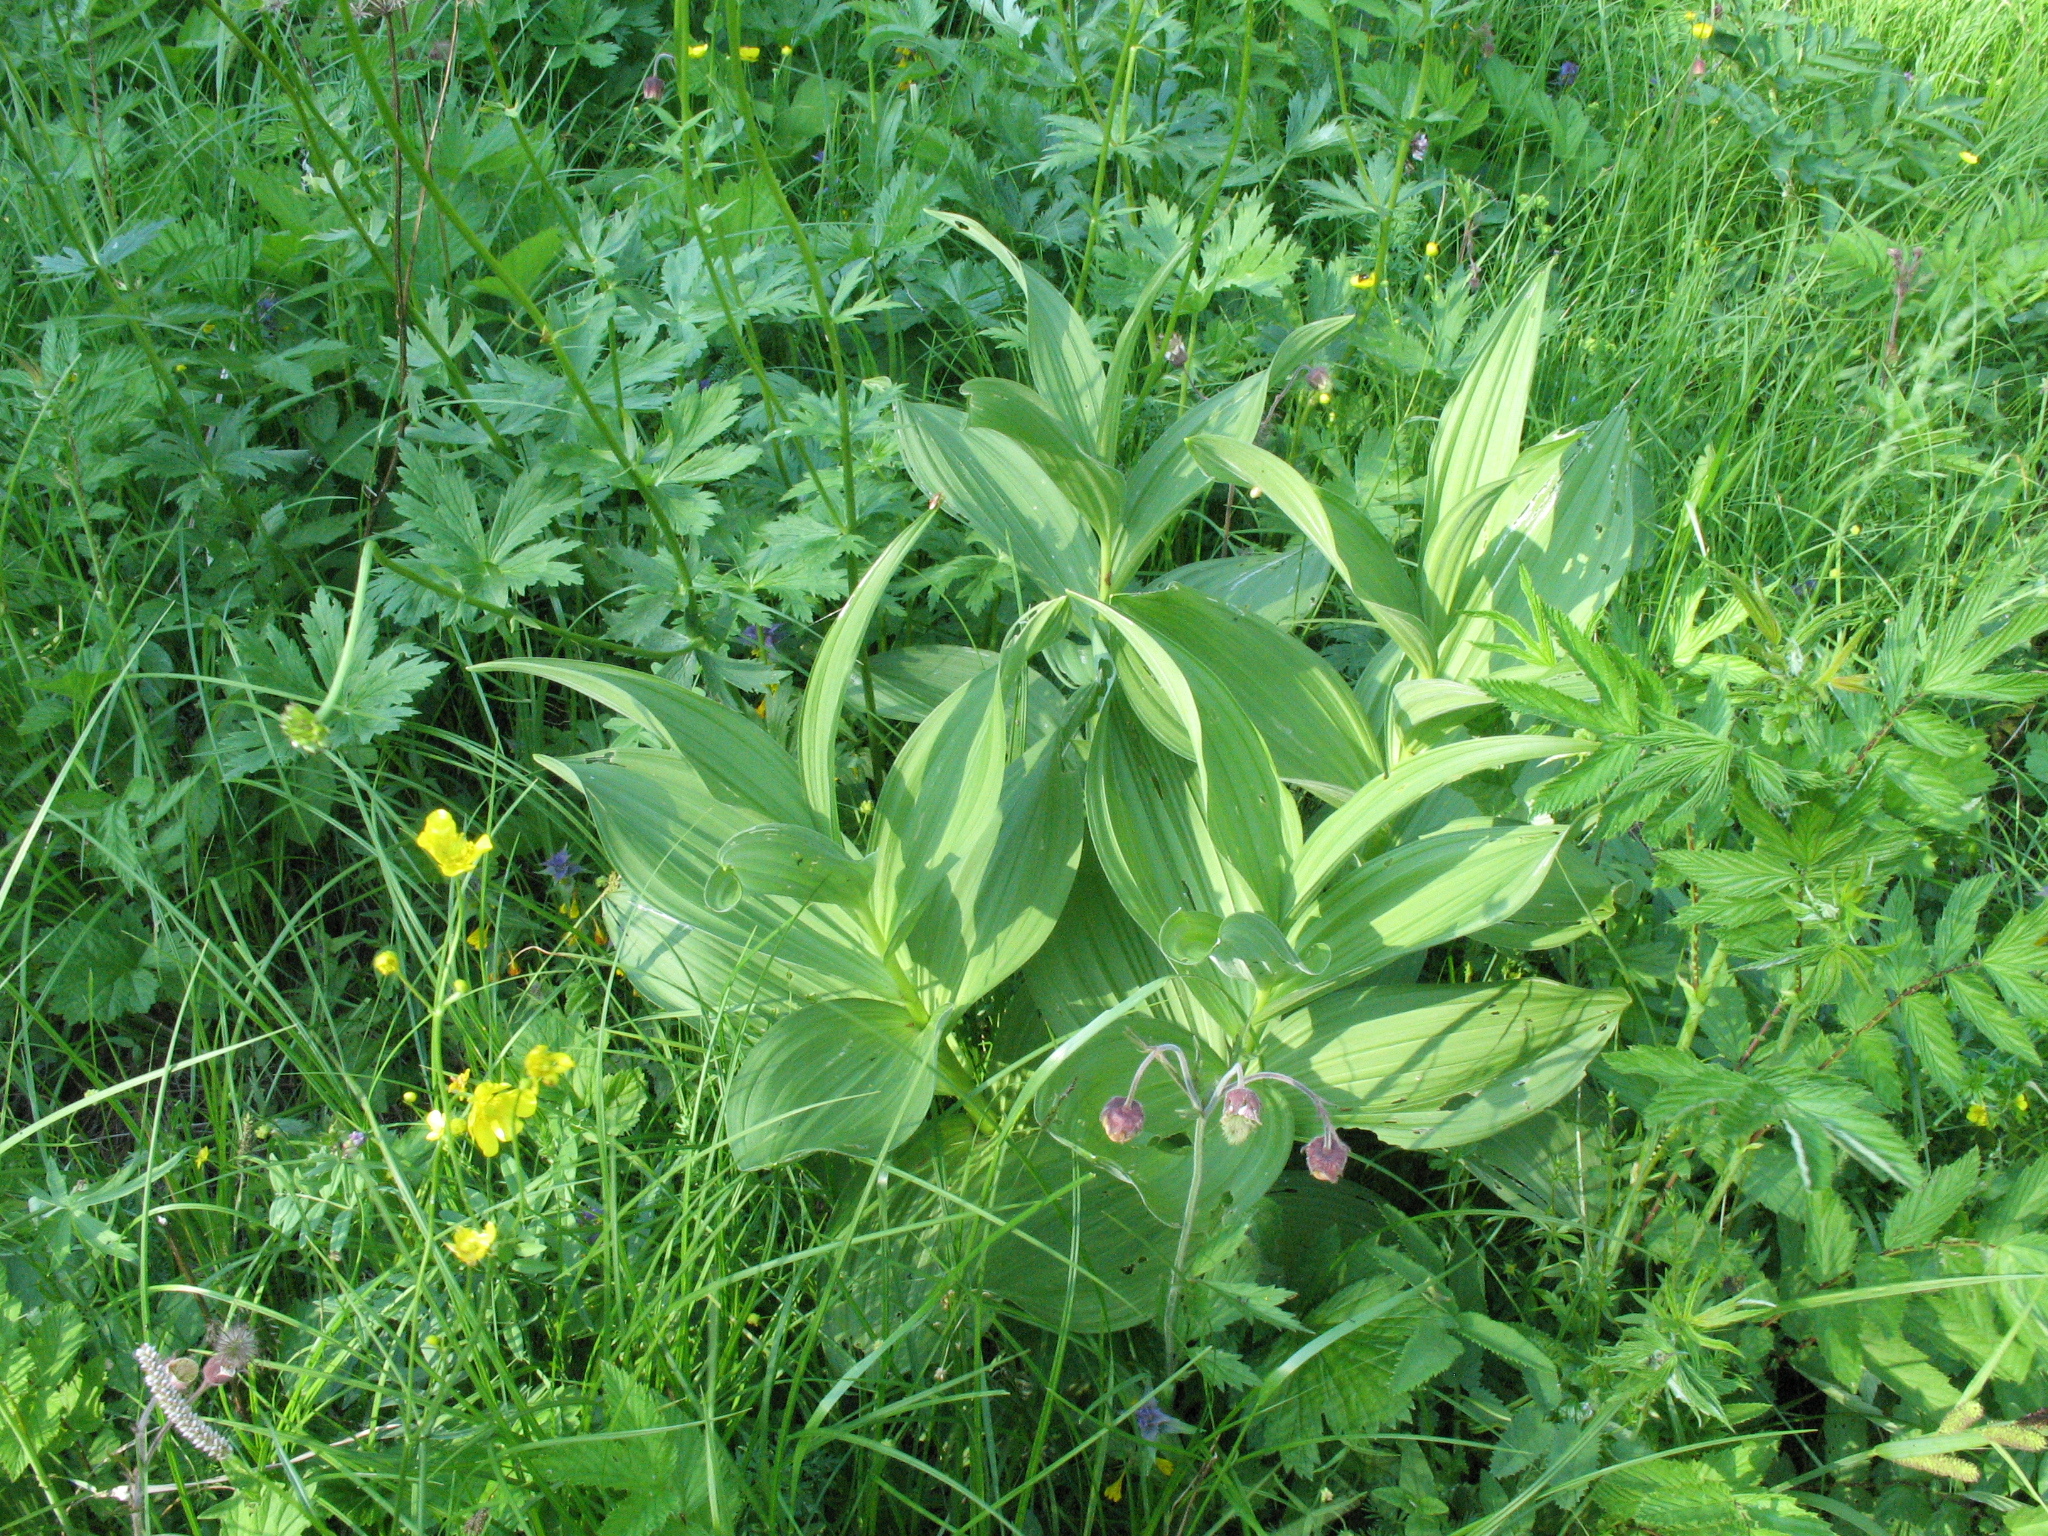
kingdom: Plantae
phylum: Tracheophyta
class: Liliopsida
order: Liliales
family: Melanthiaceae
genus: Veratrum
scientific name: Veratrum lobelianum
